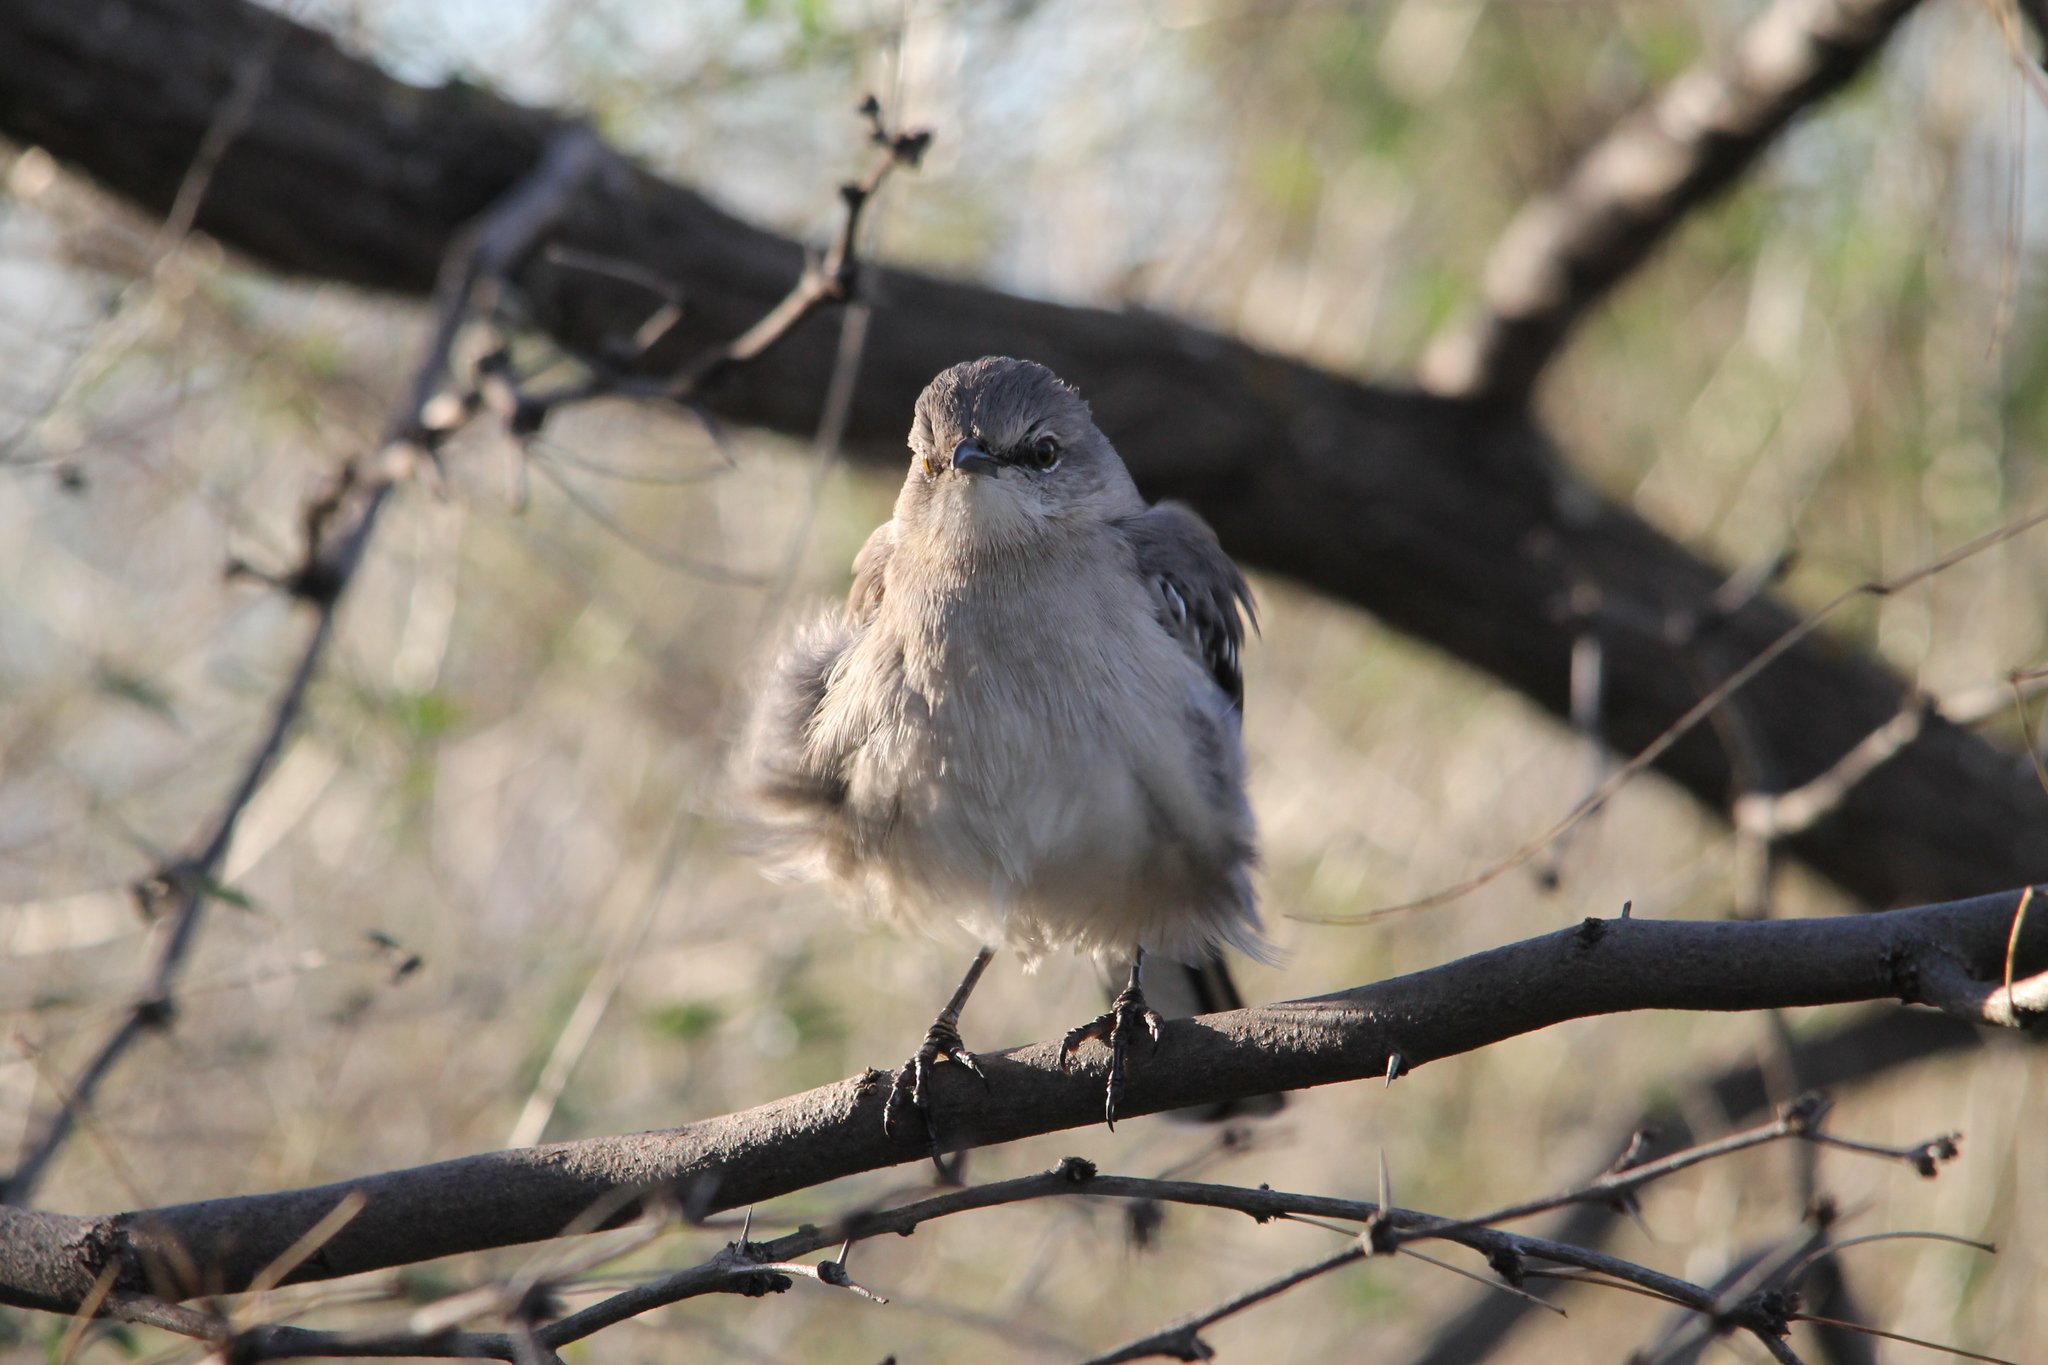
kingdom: Animalia
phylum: Chordata
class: Aves
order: Passeriformes
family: Mimidae
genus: Mimus
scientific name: Mimus polyglottos
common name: Northern mockingbird
